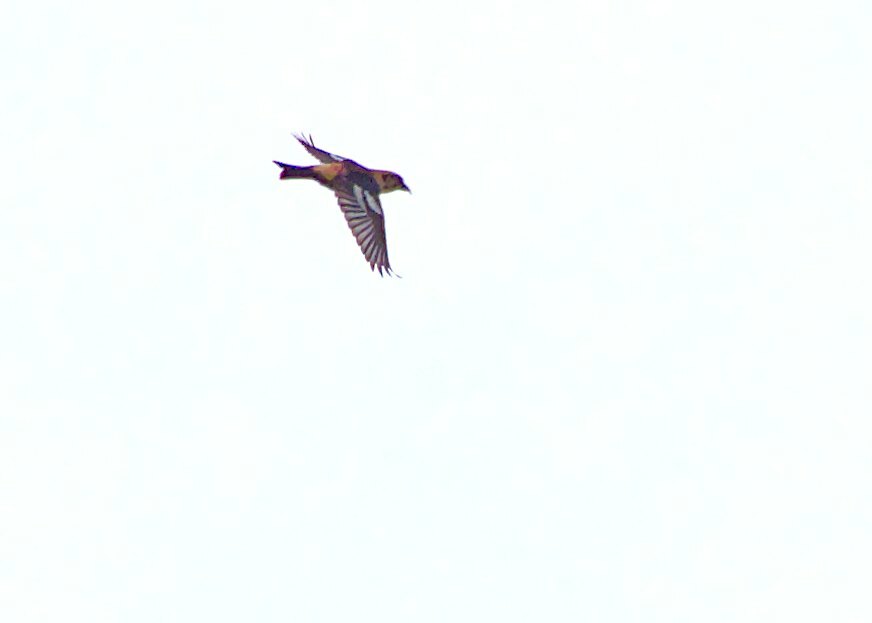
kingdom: Animalia
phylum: Chordata
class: Aves
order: Passeriformes
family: Fringillidae
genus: Loxia
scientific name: Loxia leucoptera
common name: Two-barred crossbill
